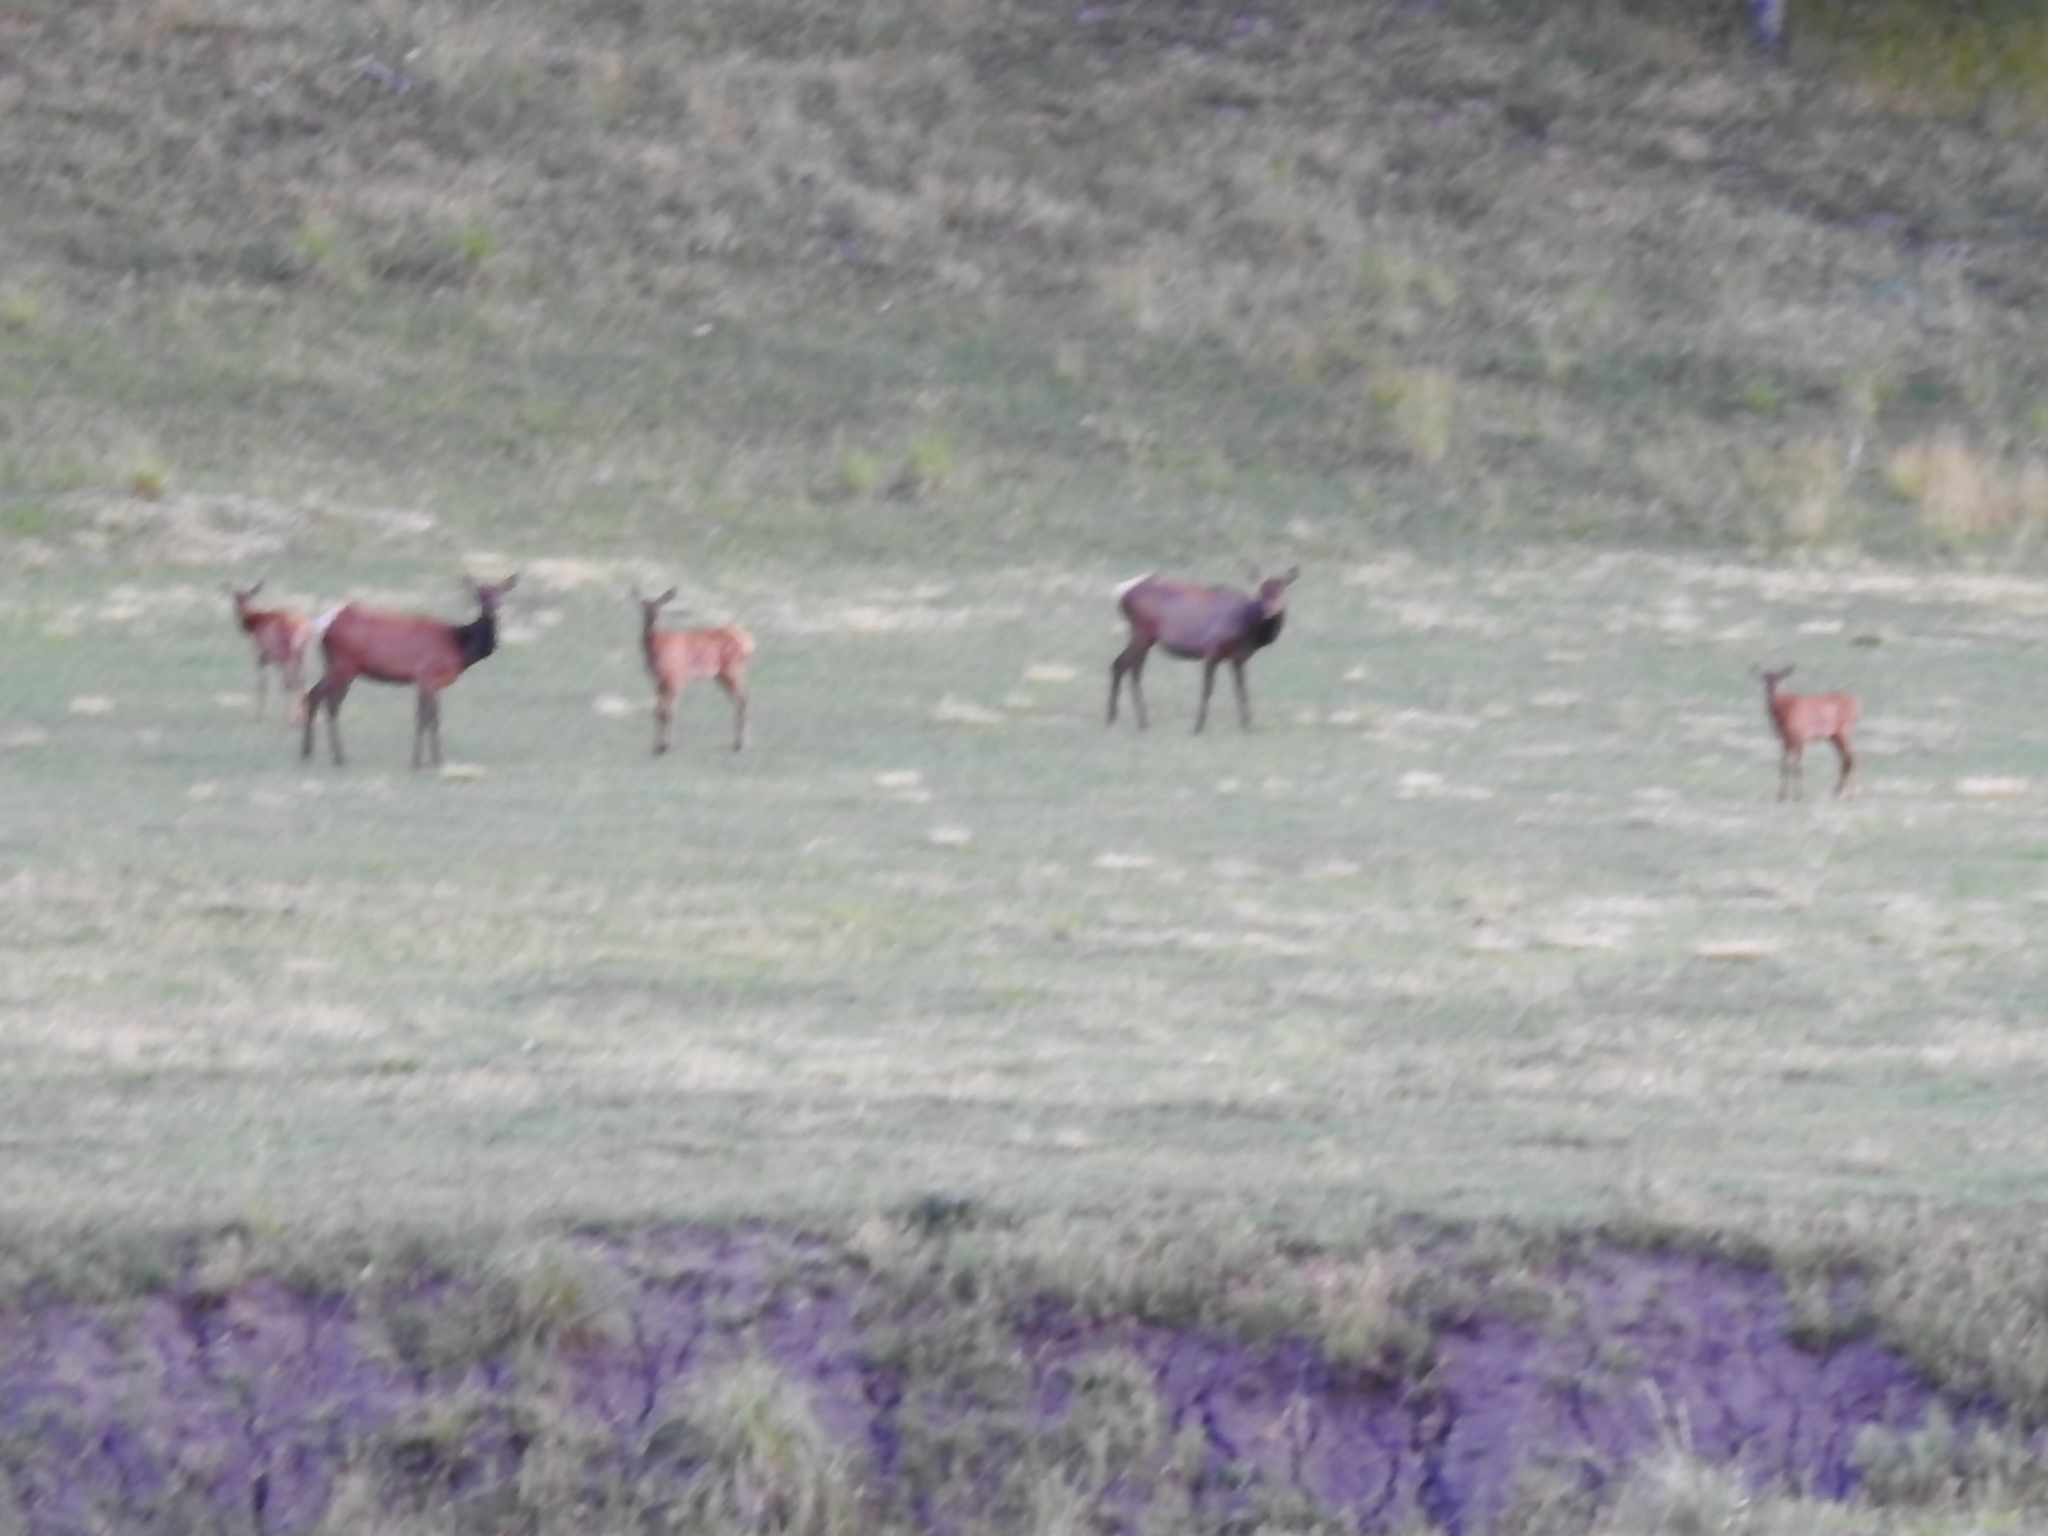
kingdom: Animalia
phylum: Chordata
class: Mammalia
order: Artiodactyla
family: Cervidae
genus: Cervus
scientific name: Cervus elaphus
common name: Red deer
